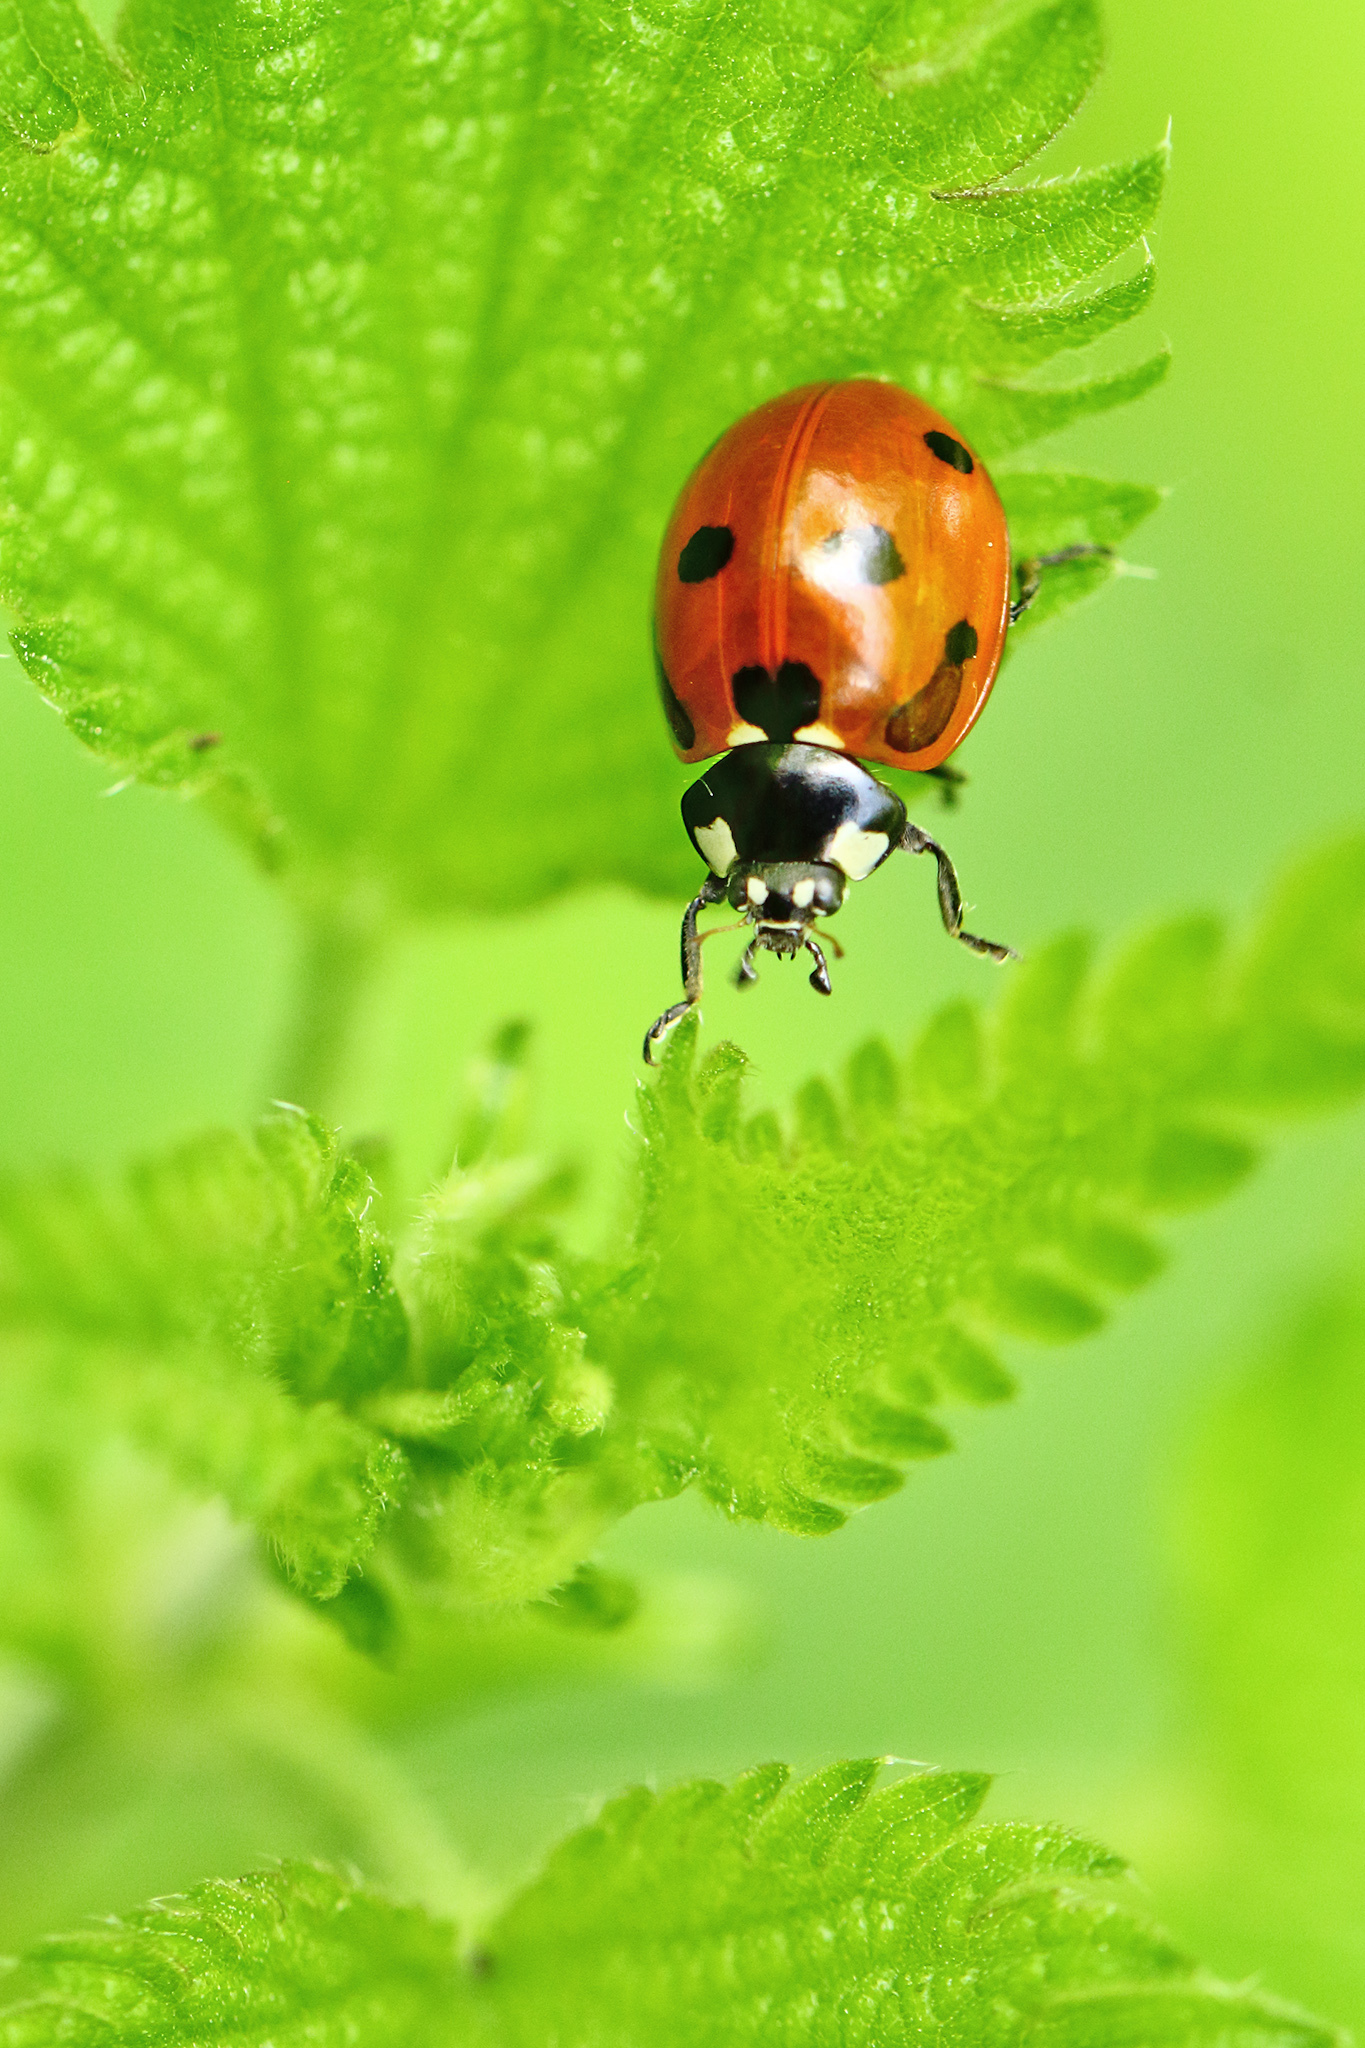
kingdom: Animalia
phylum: Arthropoda
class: Insecta
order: Coleoptera
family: Coccinellidae
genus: Coccinella
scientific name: Coccinella septempunctata
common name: Sevenspotted lady beetle
